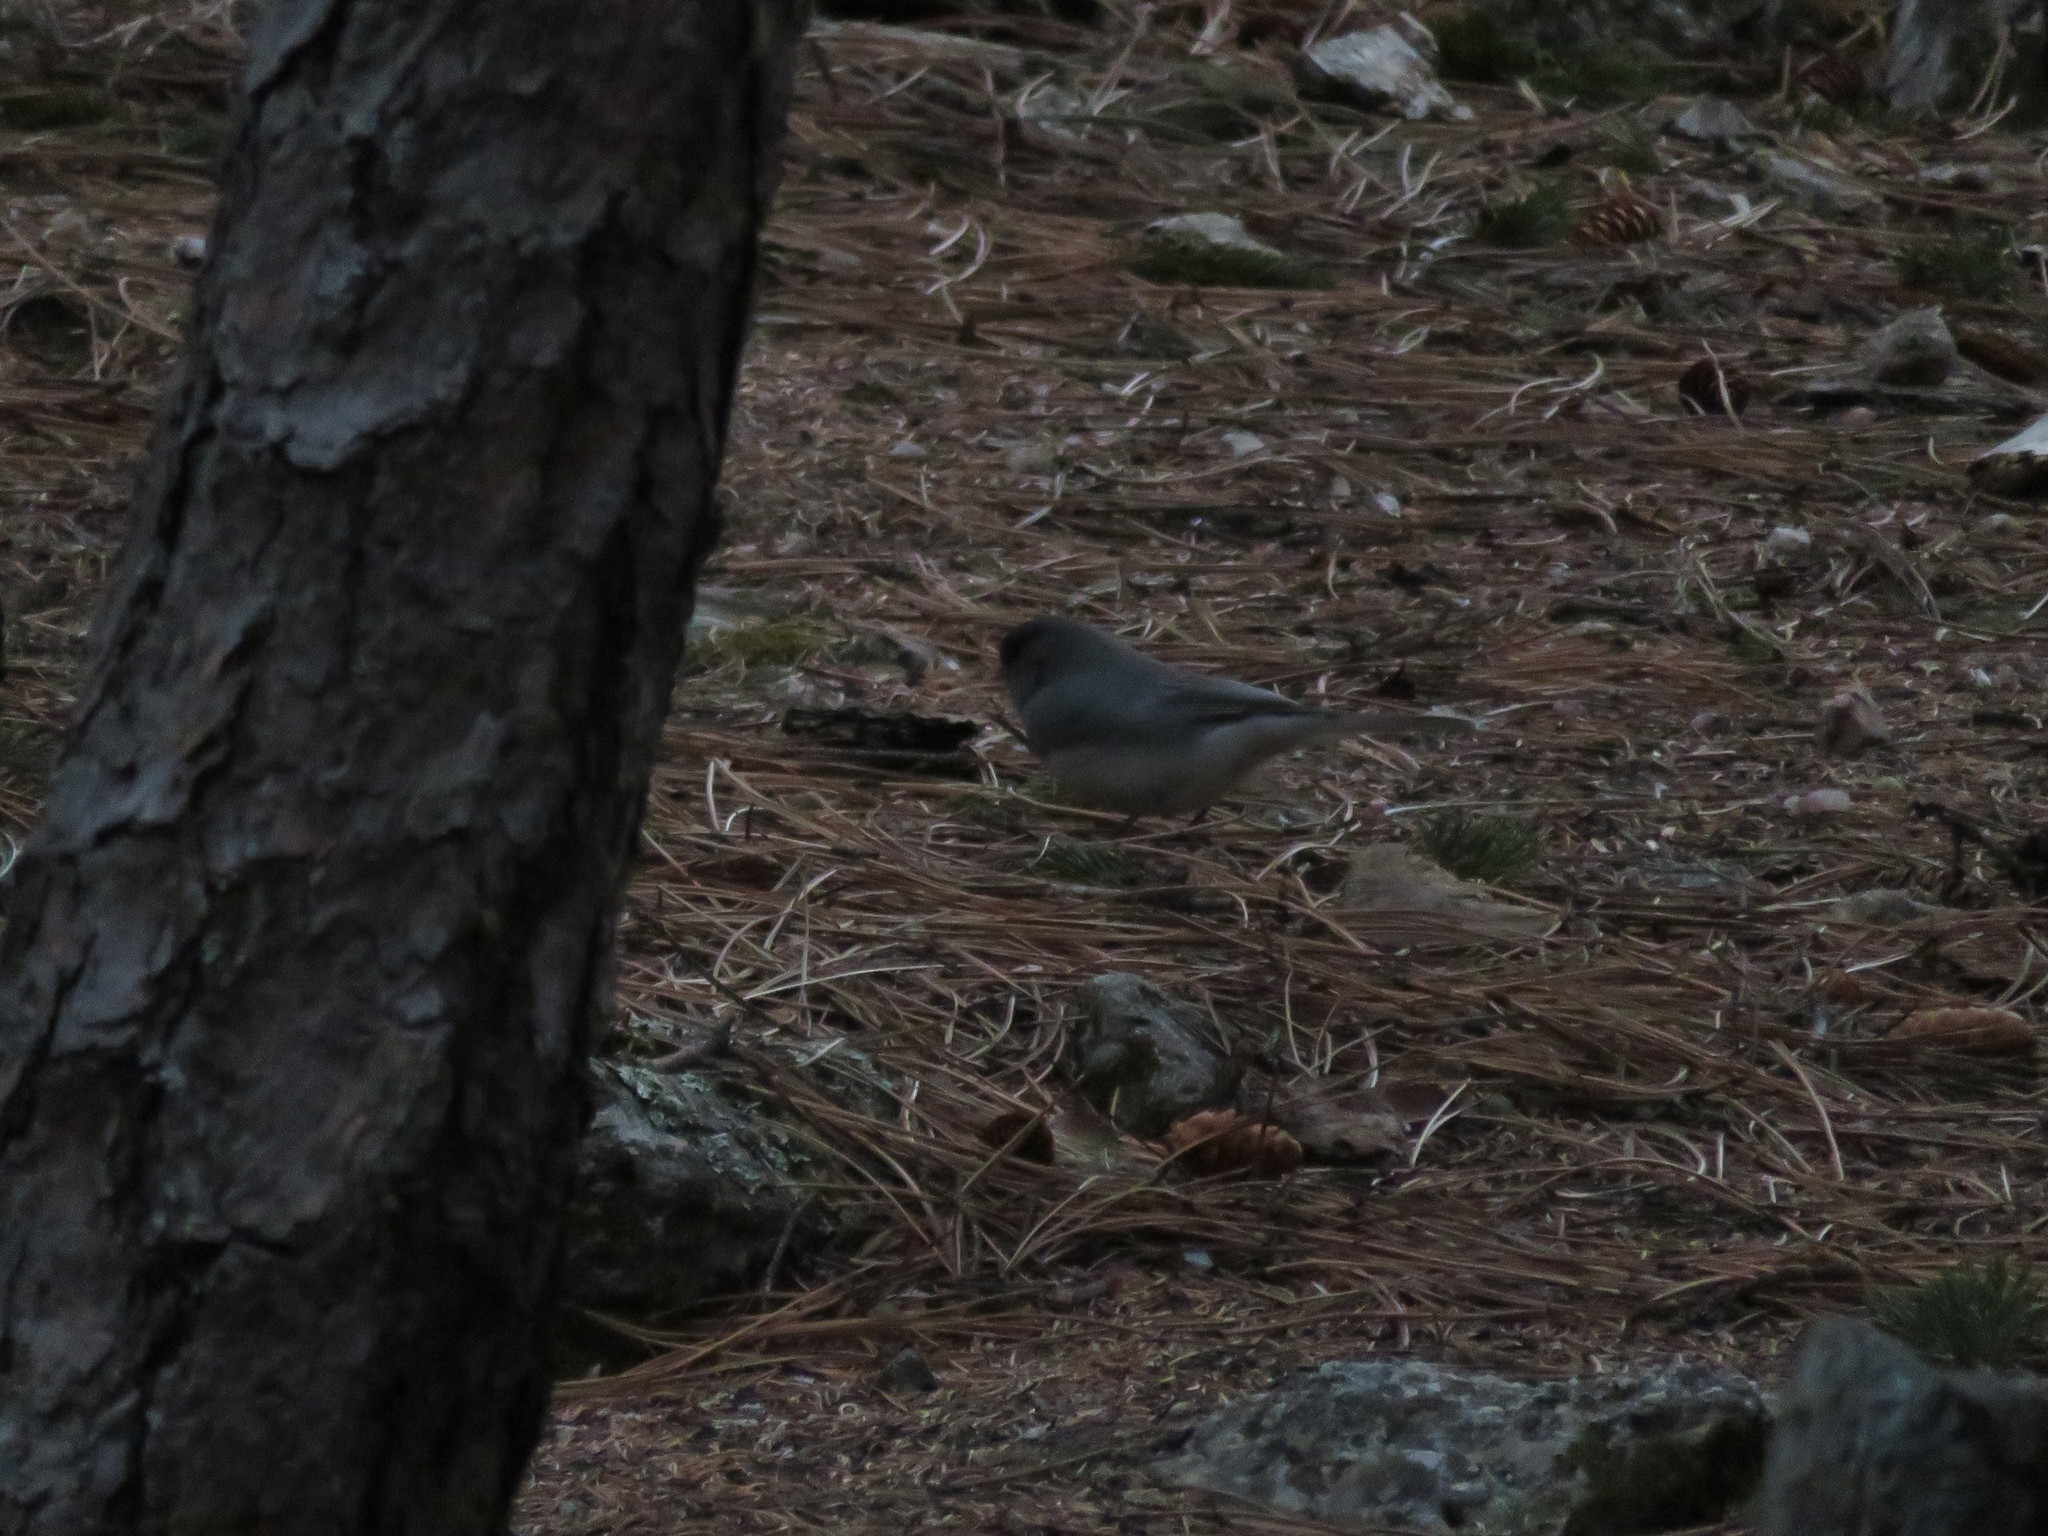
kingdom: Animalia
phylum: Chordata
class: Aves
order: Passeriformes
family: Passerellidae
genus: Junco
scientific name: Junco hyemalis
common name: Dark-eyed junco
